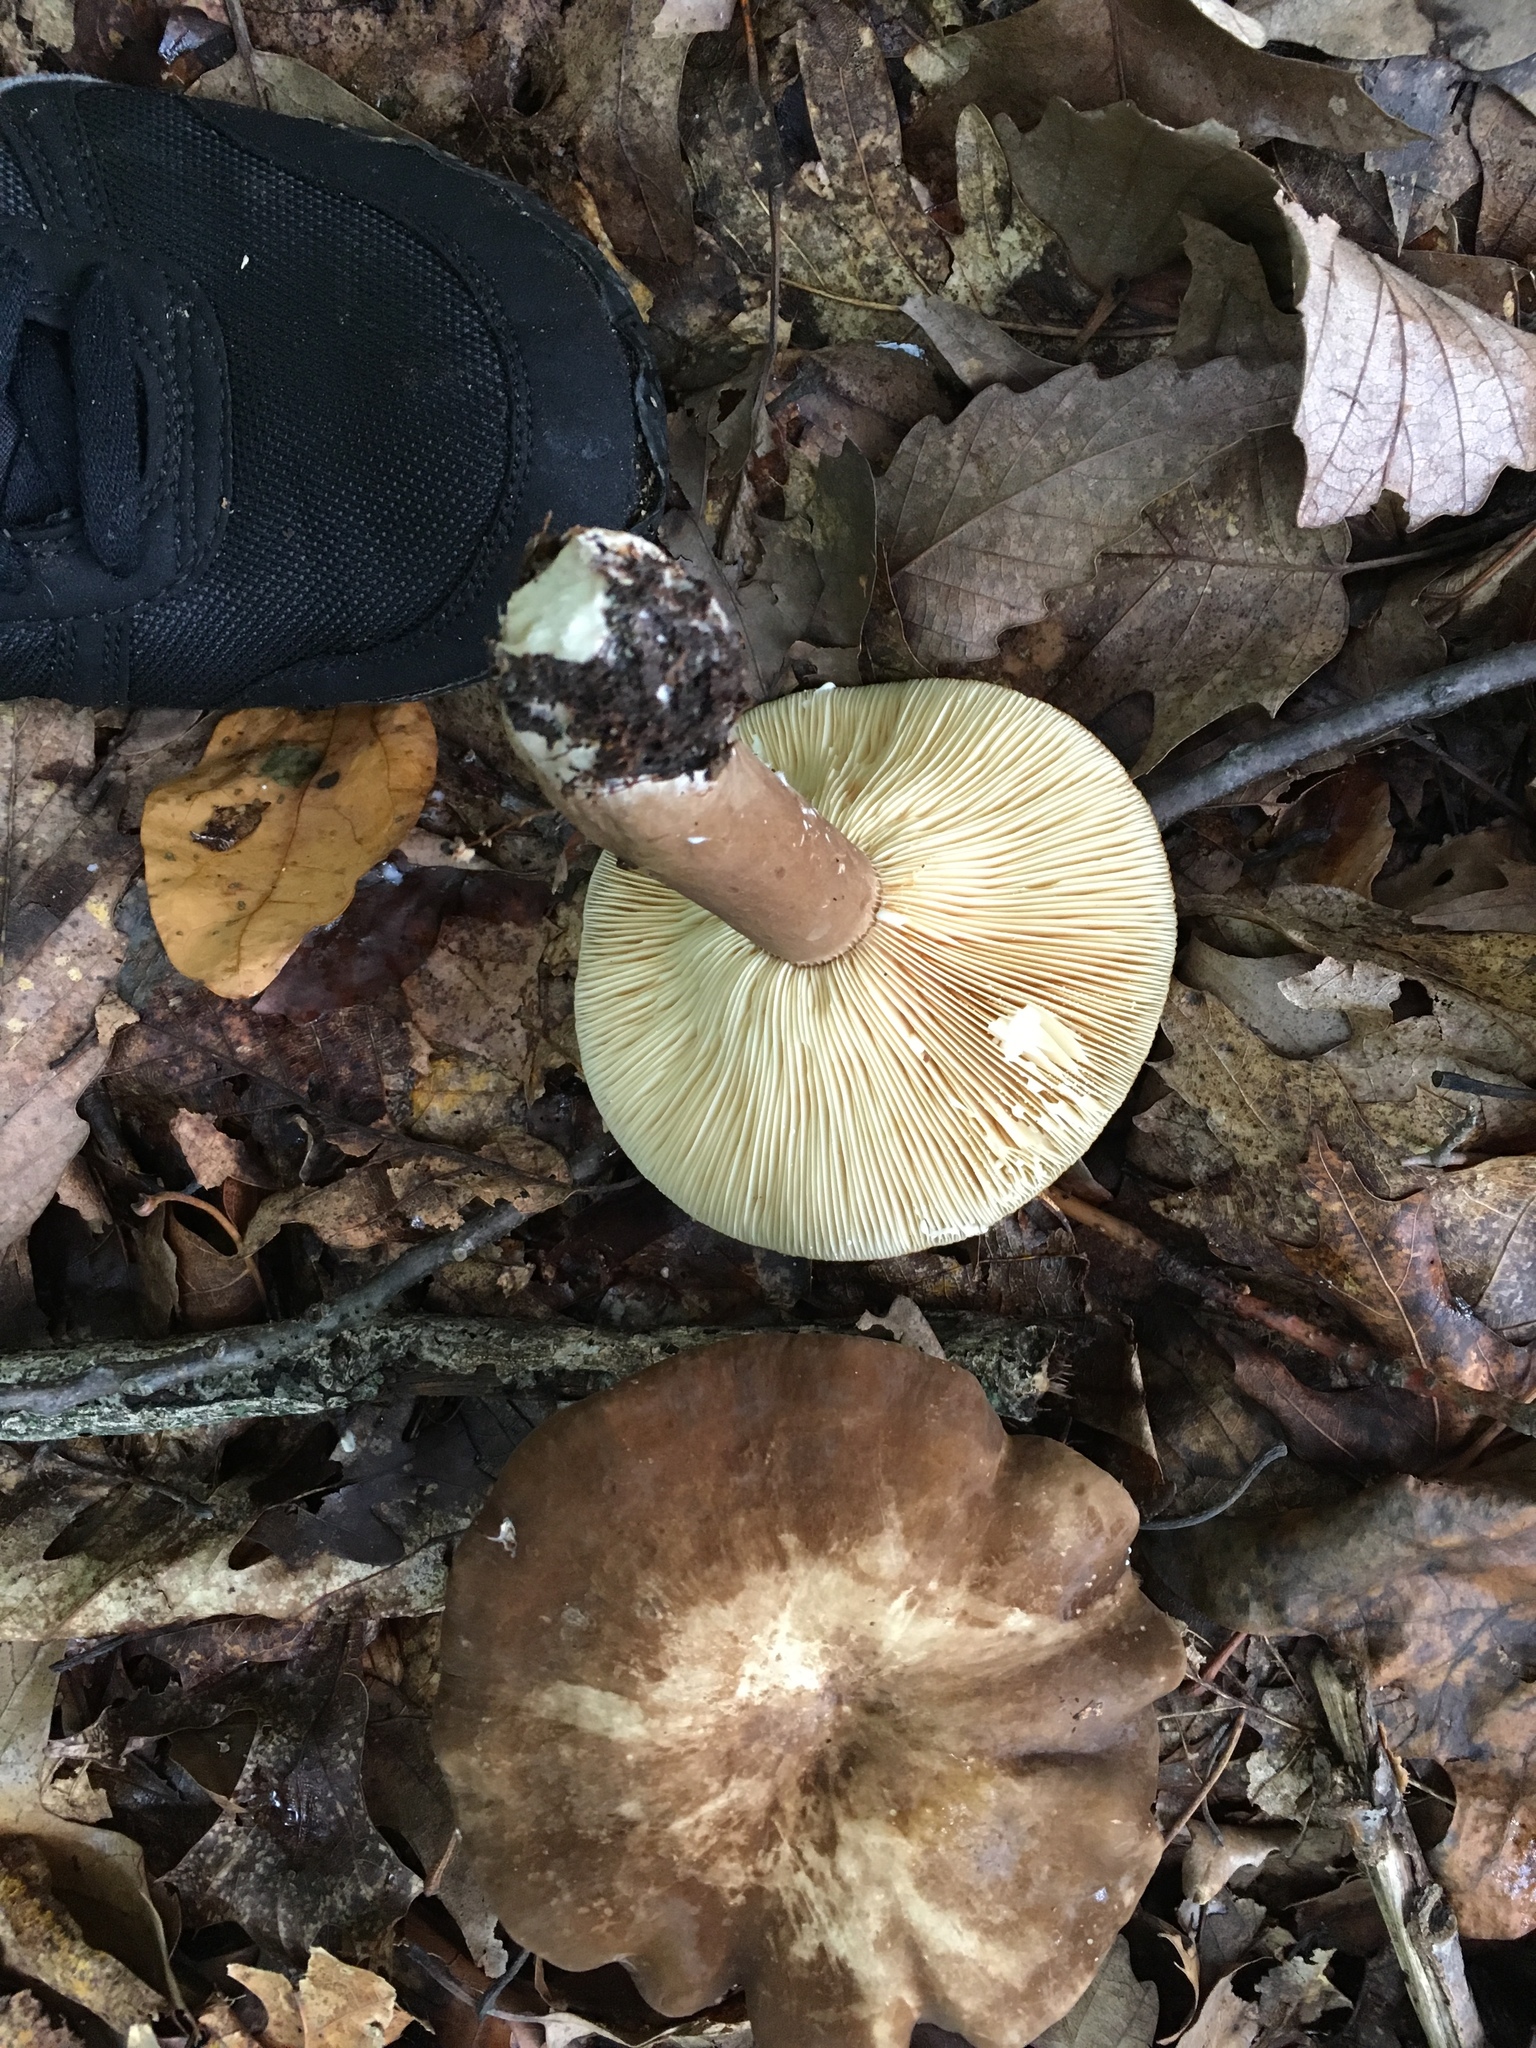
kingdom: Fungi
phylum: Basidiomycota
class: Agaricomycetes
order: Russulales
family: Russulaceae
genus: Lactarius
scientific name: Lactarius fuliginosus
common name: Sooty milkcap
